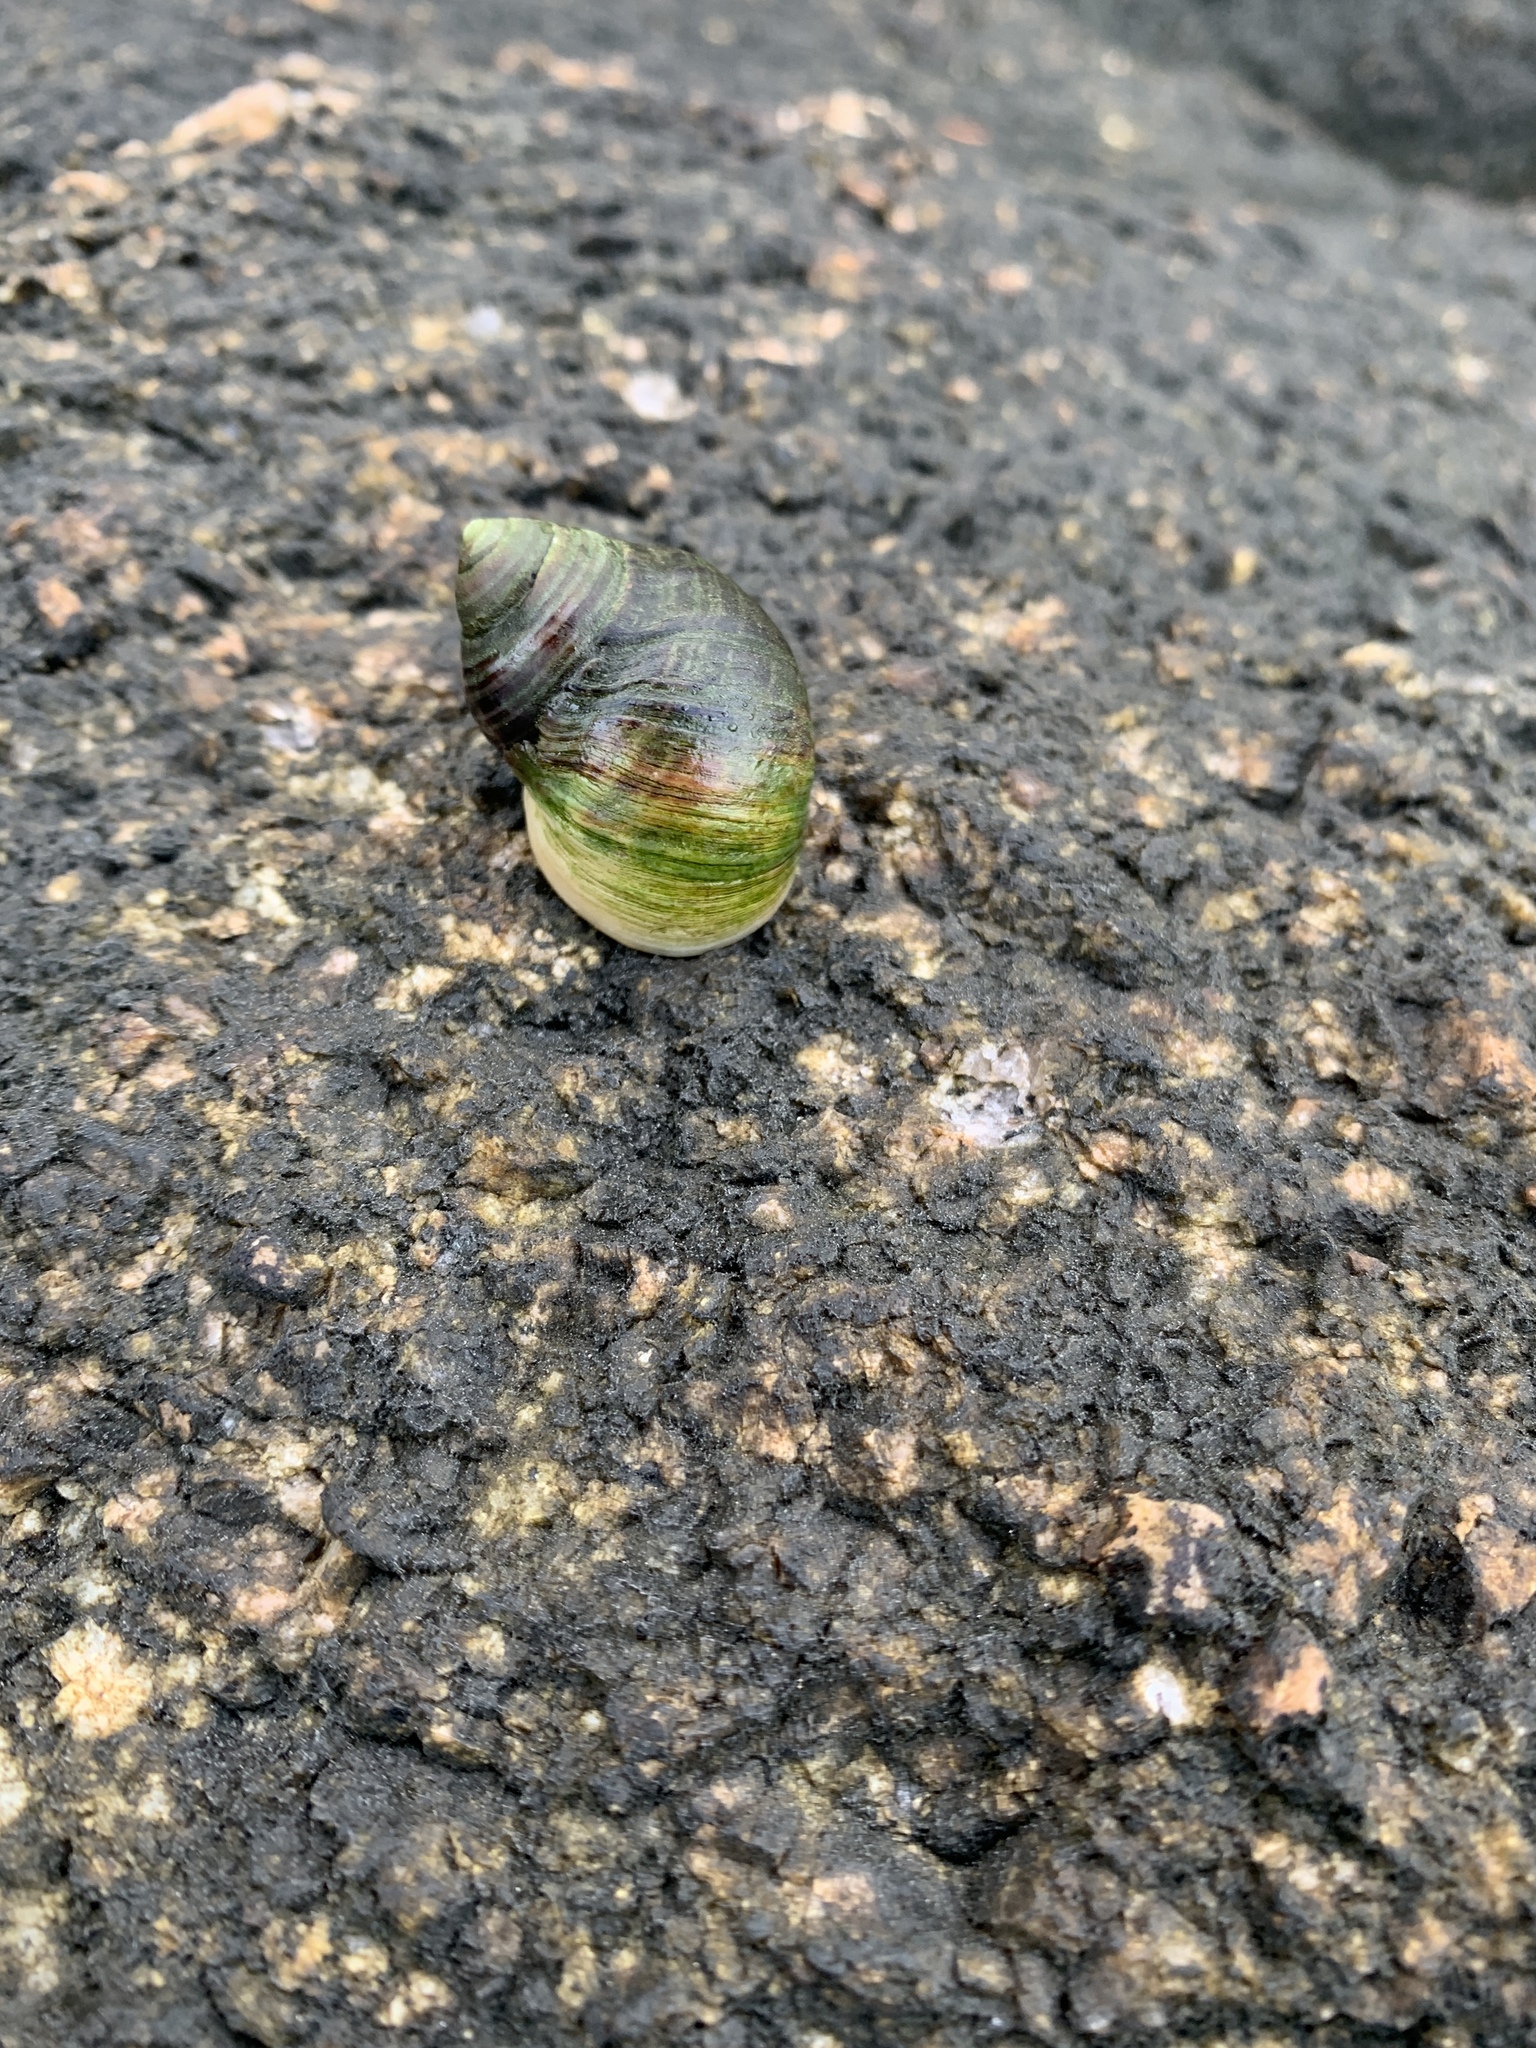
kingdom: Animalia
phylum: Mollusca
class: Gastropoda
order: Littorinimorpha
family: Littorinidae
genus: Littorina
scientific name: Littorina littorea
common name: Common periwinkle
